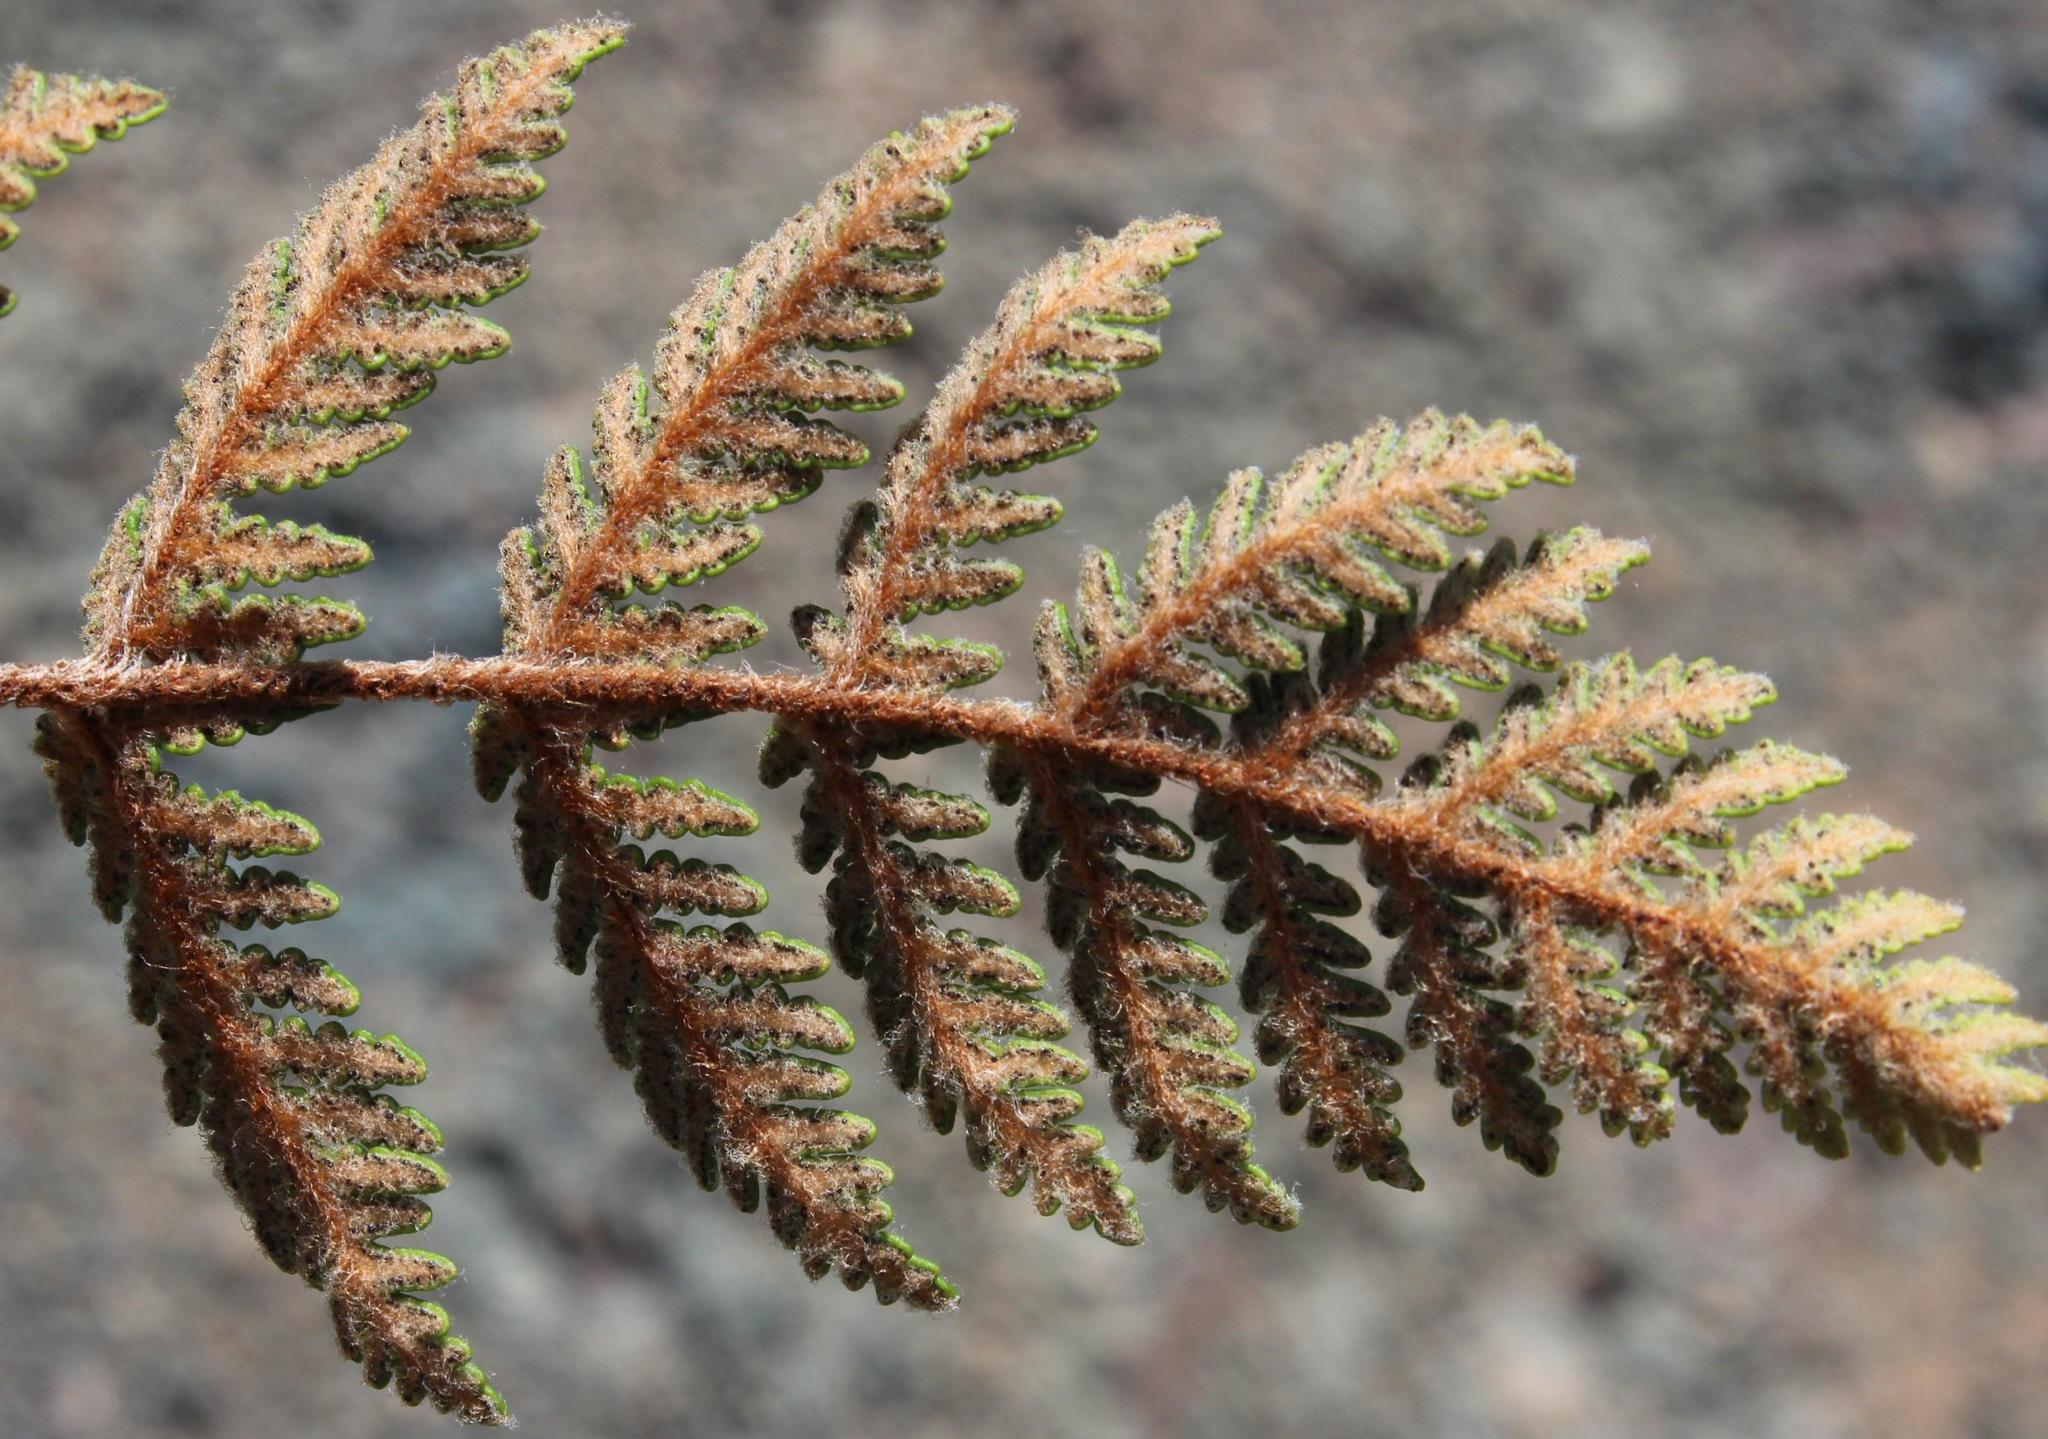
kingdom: Plantae
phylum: Tracheophyta
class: Polypodiopsida
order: Polypodiales
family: Pteridaceae
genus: Cheilanthes
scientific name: Cheilanthes eckloniana
